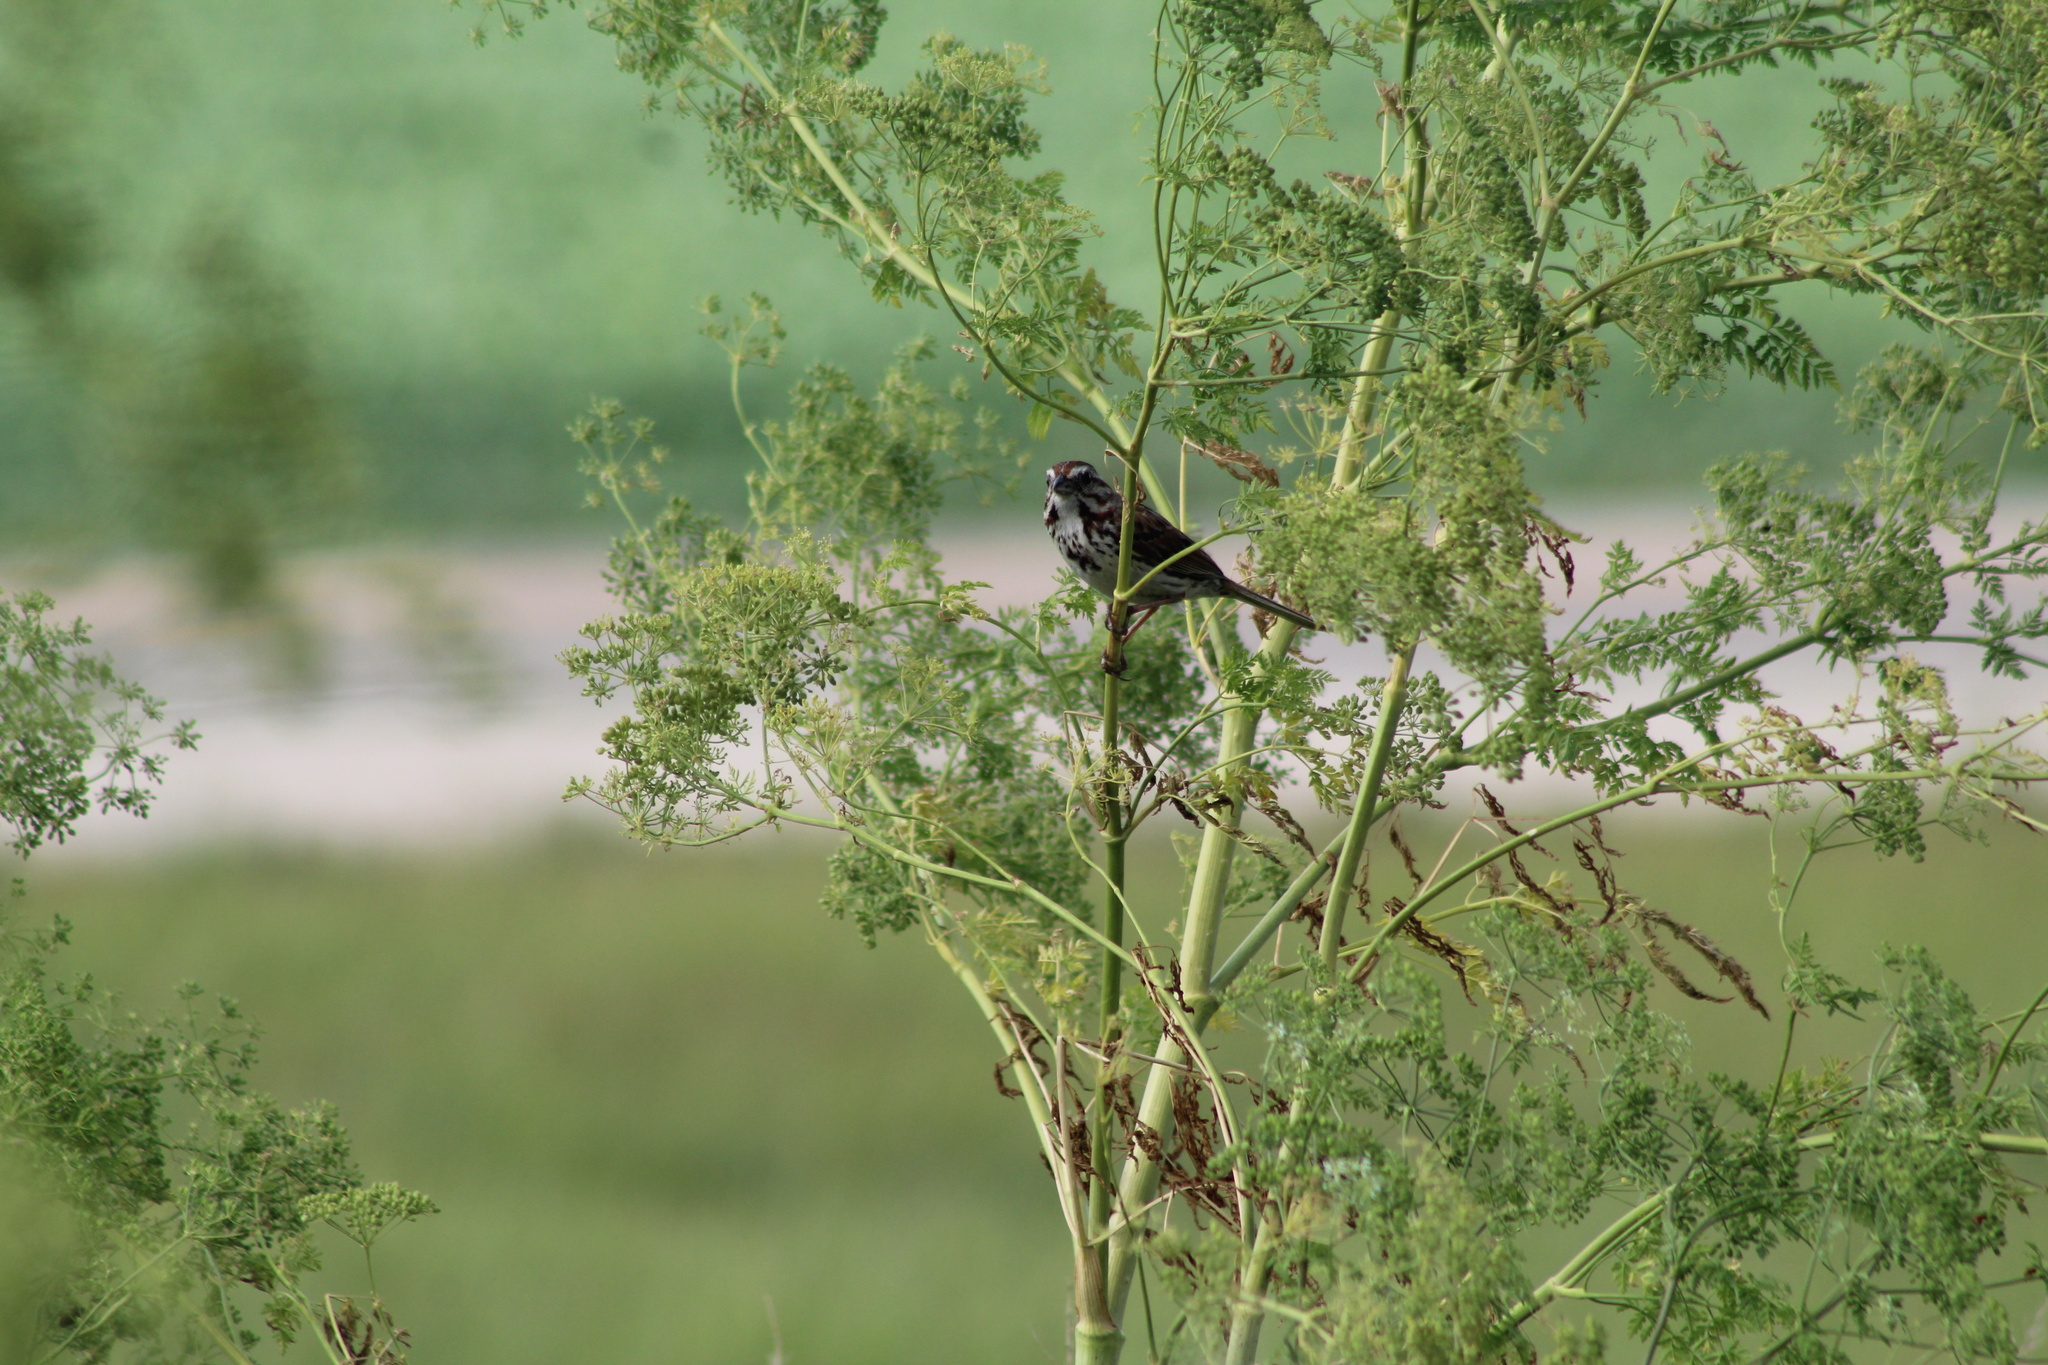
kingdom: Animalia
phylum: Chordata
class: Aves
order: Passeriformes
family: Passerellidae
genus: Melospiza
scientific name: Melospiza melodia
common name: Song sparrow
